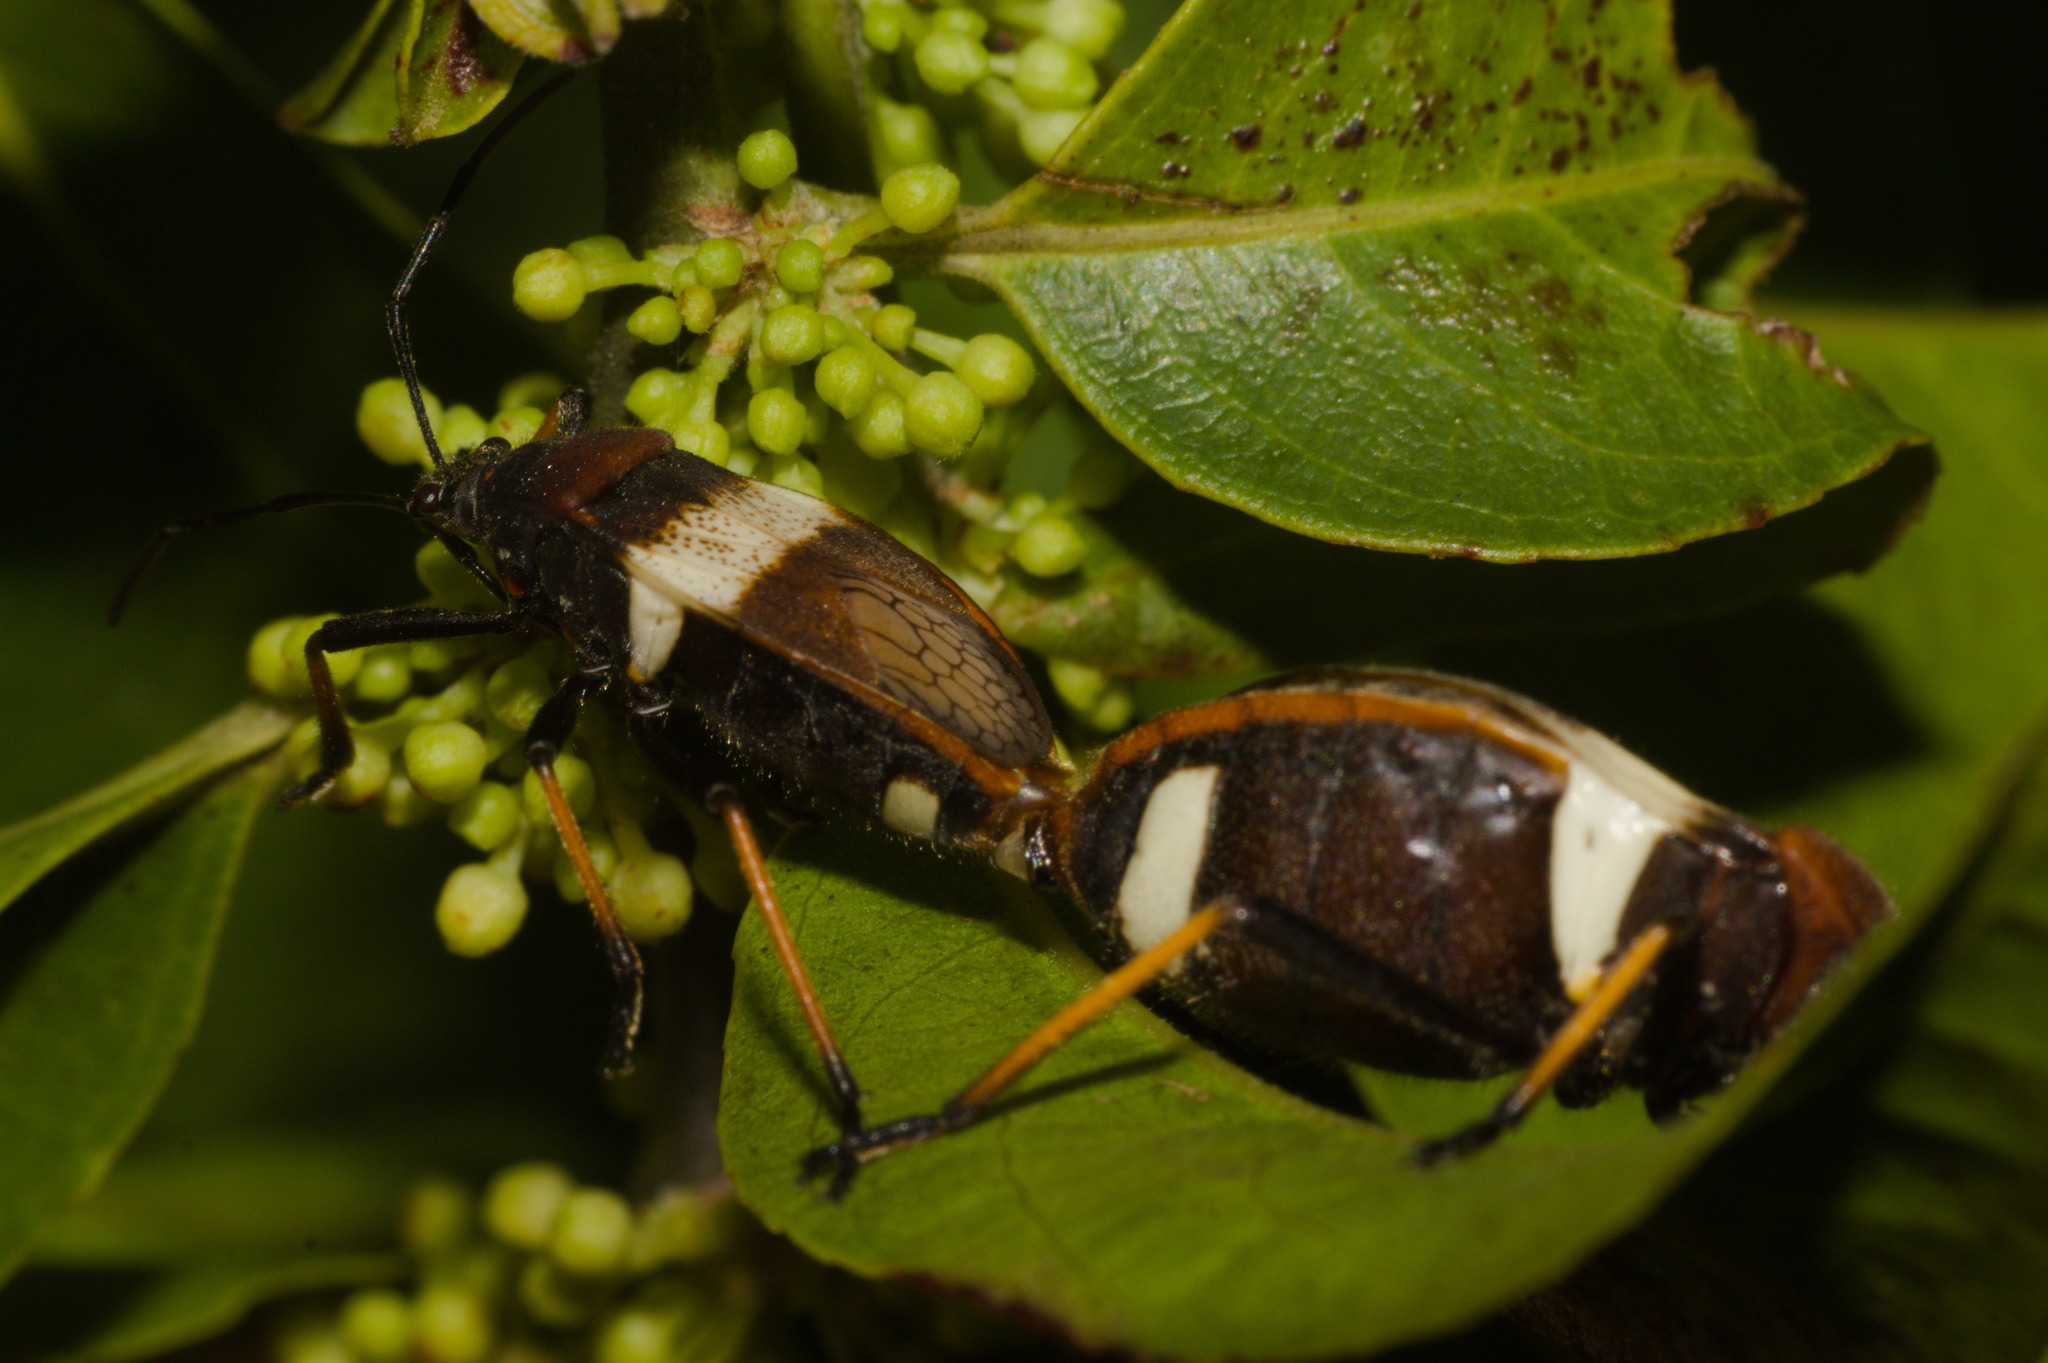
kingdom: Animalia
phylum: Arthropoda
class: Insecta
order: Hemiptera
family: Largidae
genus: Largus
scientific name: Largus balteatus
